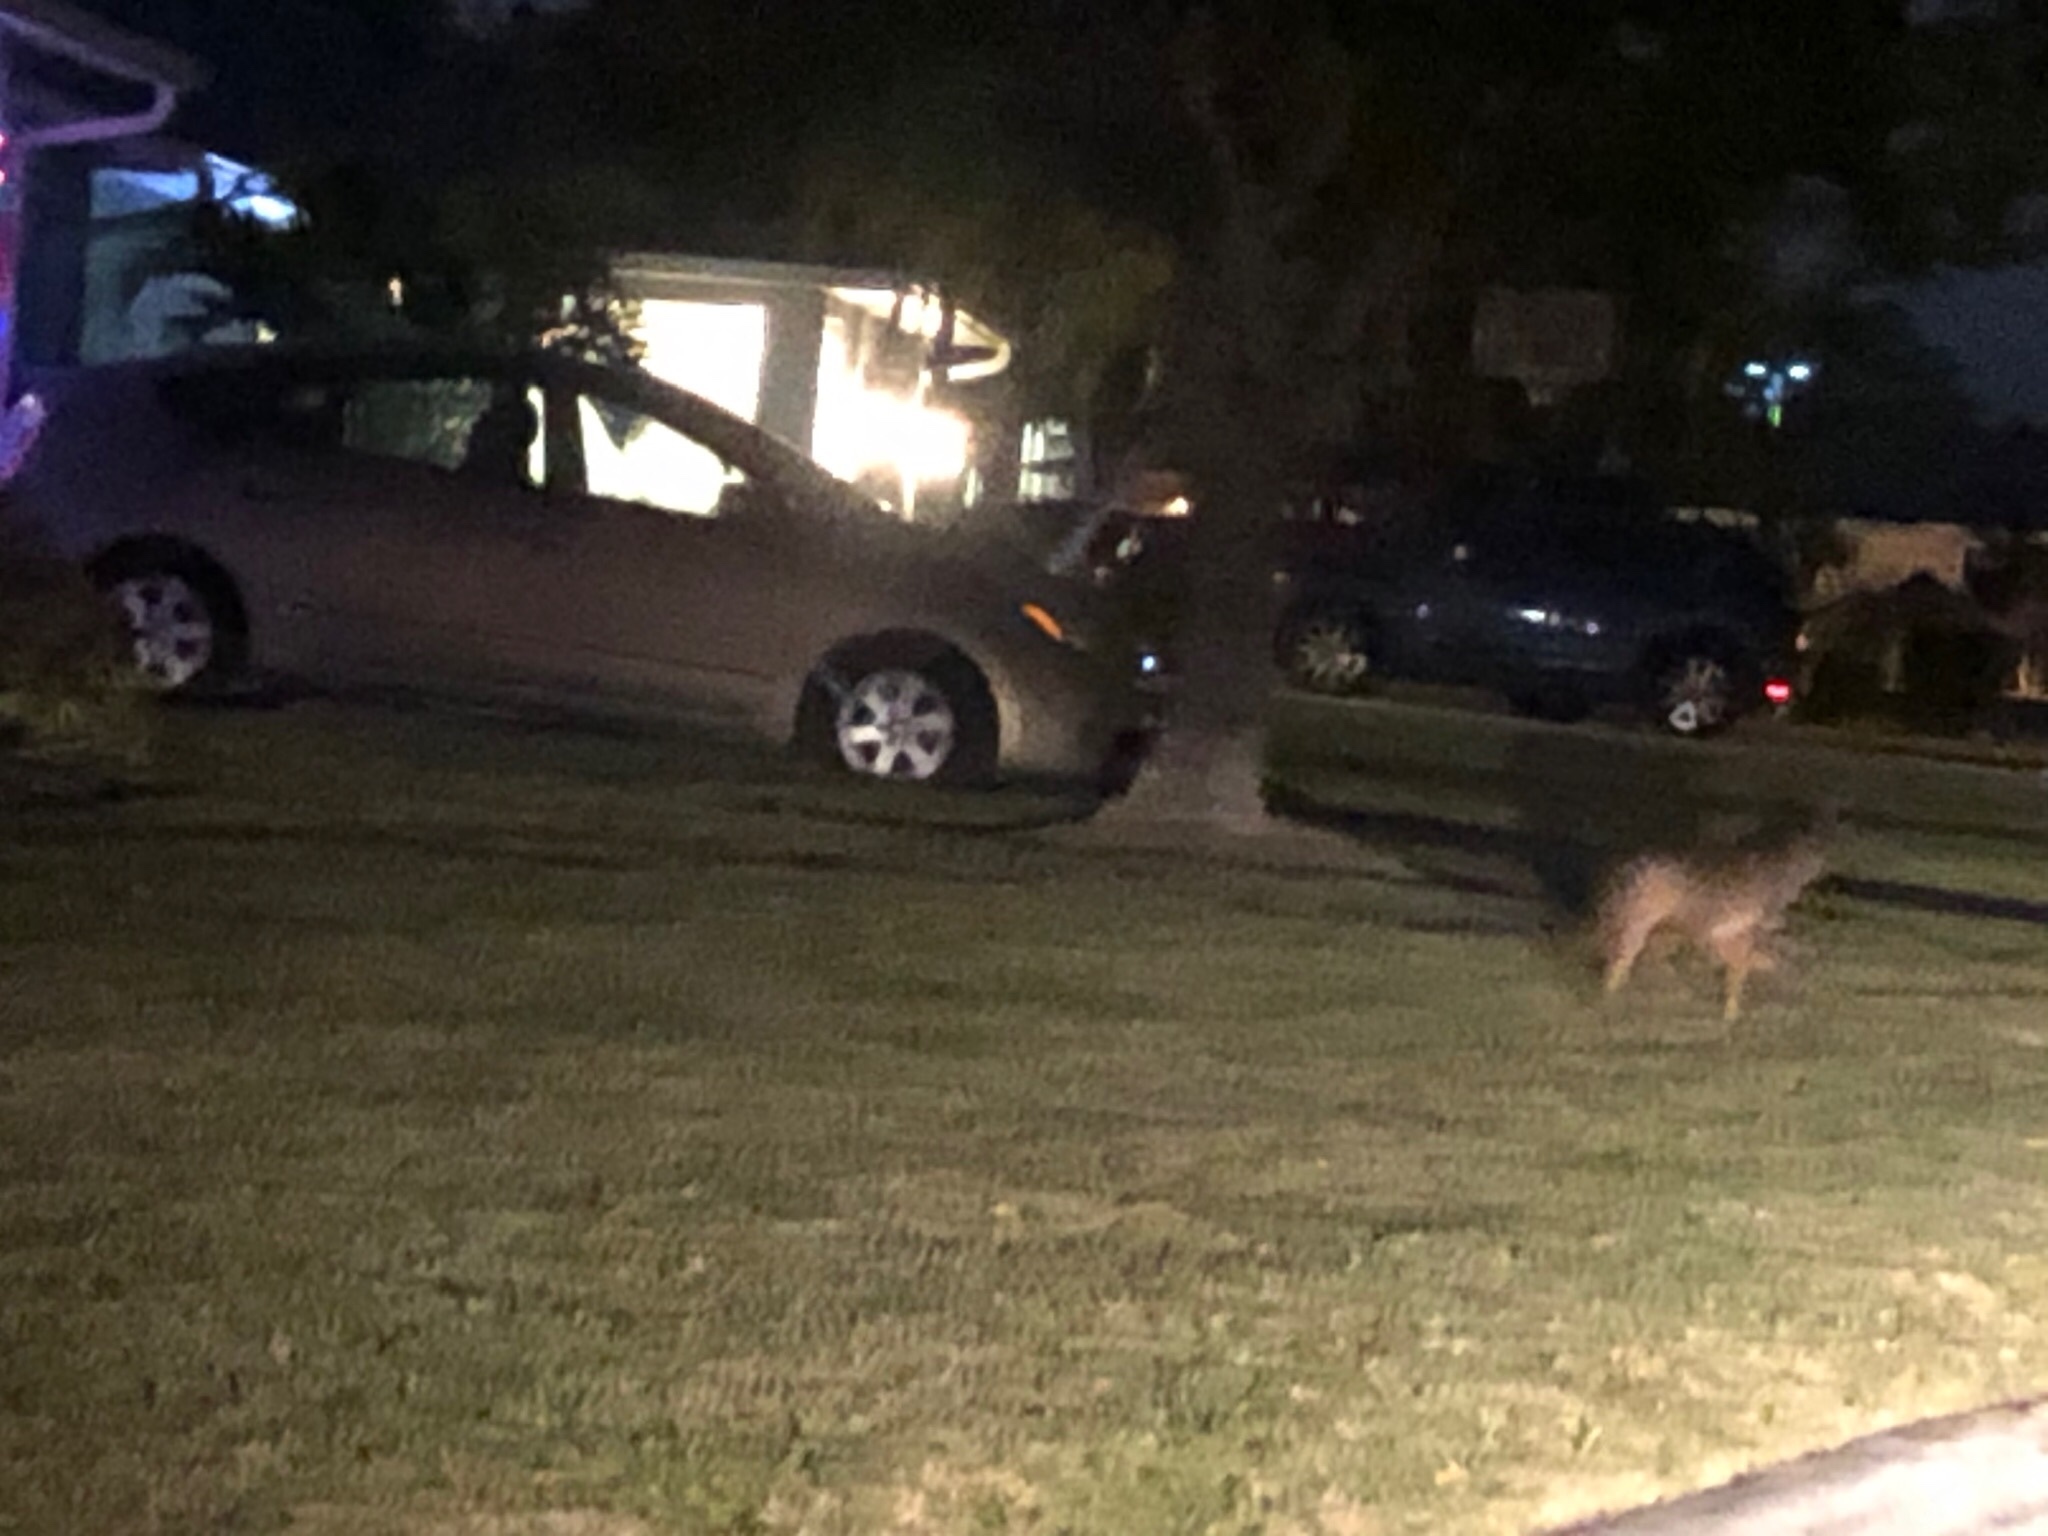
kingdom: Animalia
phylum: Chordata
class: Mammalia
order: Carnivora
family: Canidae
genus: Canis
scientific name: Canis latrans
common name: Coyote
